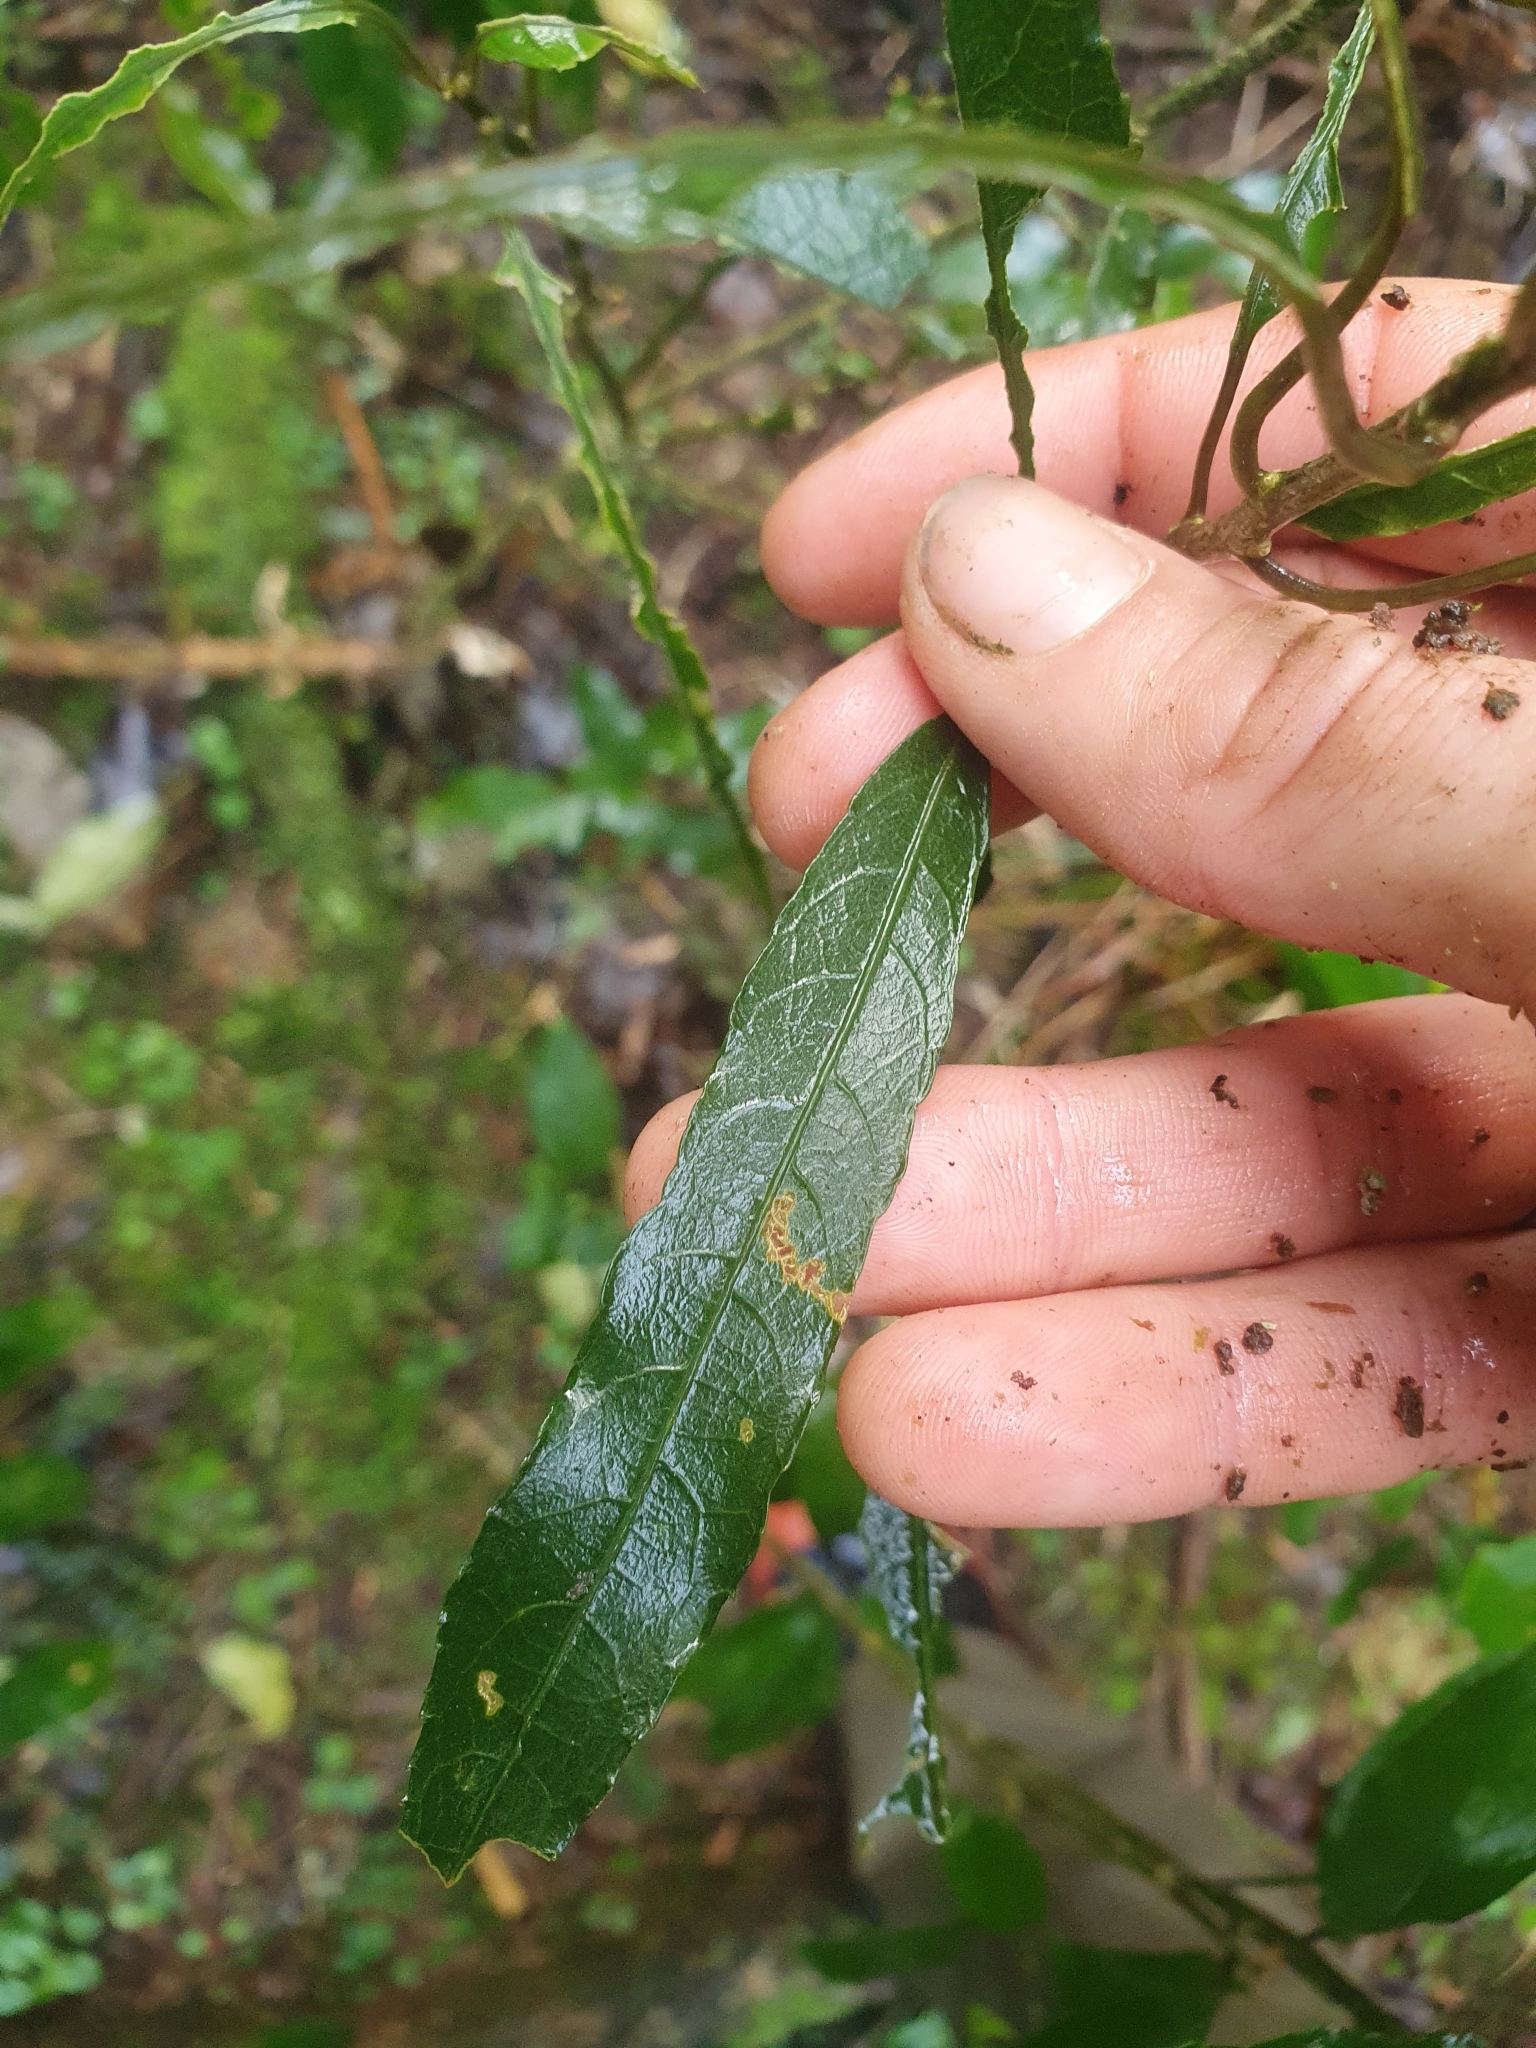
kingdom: Plantae
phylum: Tracheophyta
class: Magnoliopsida
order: Malpighiales
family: Violaceae
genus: Melicytus
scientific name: Melicytus lanceolatus
